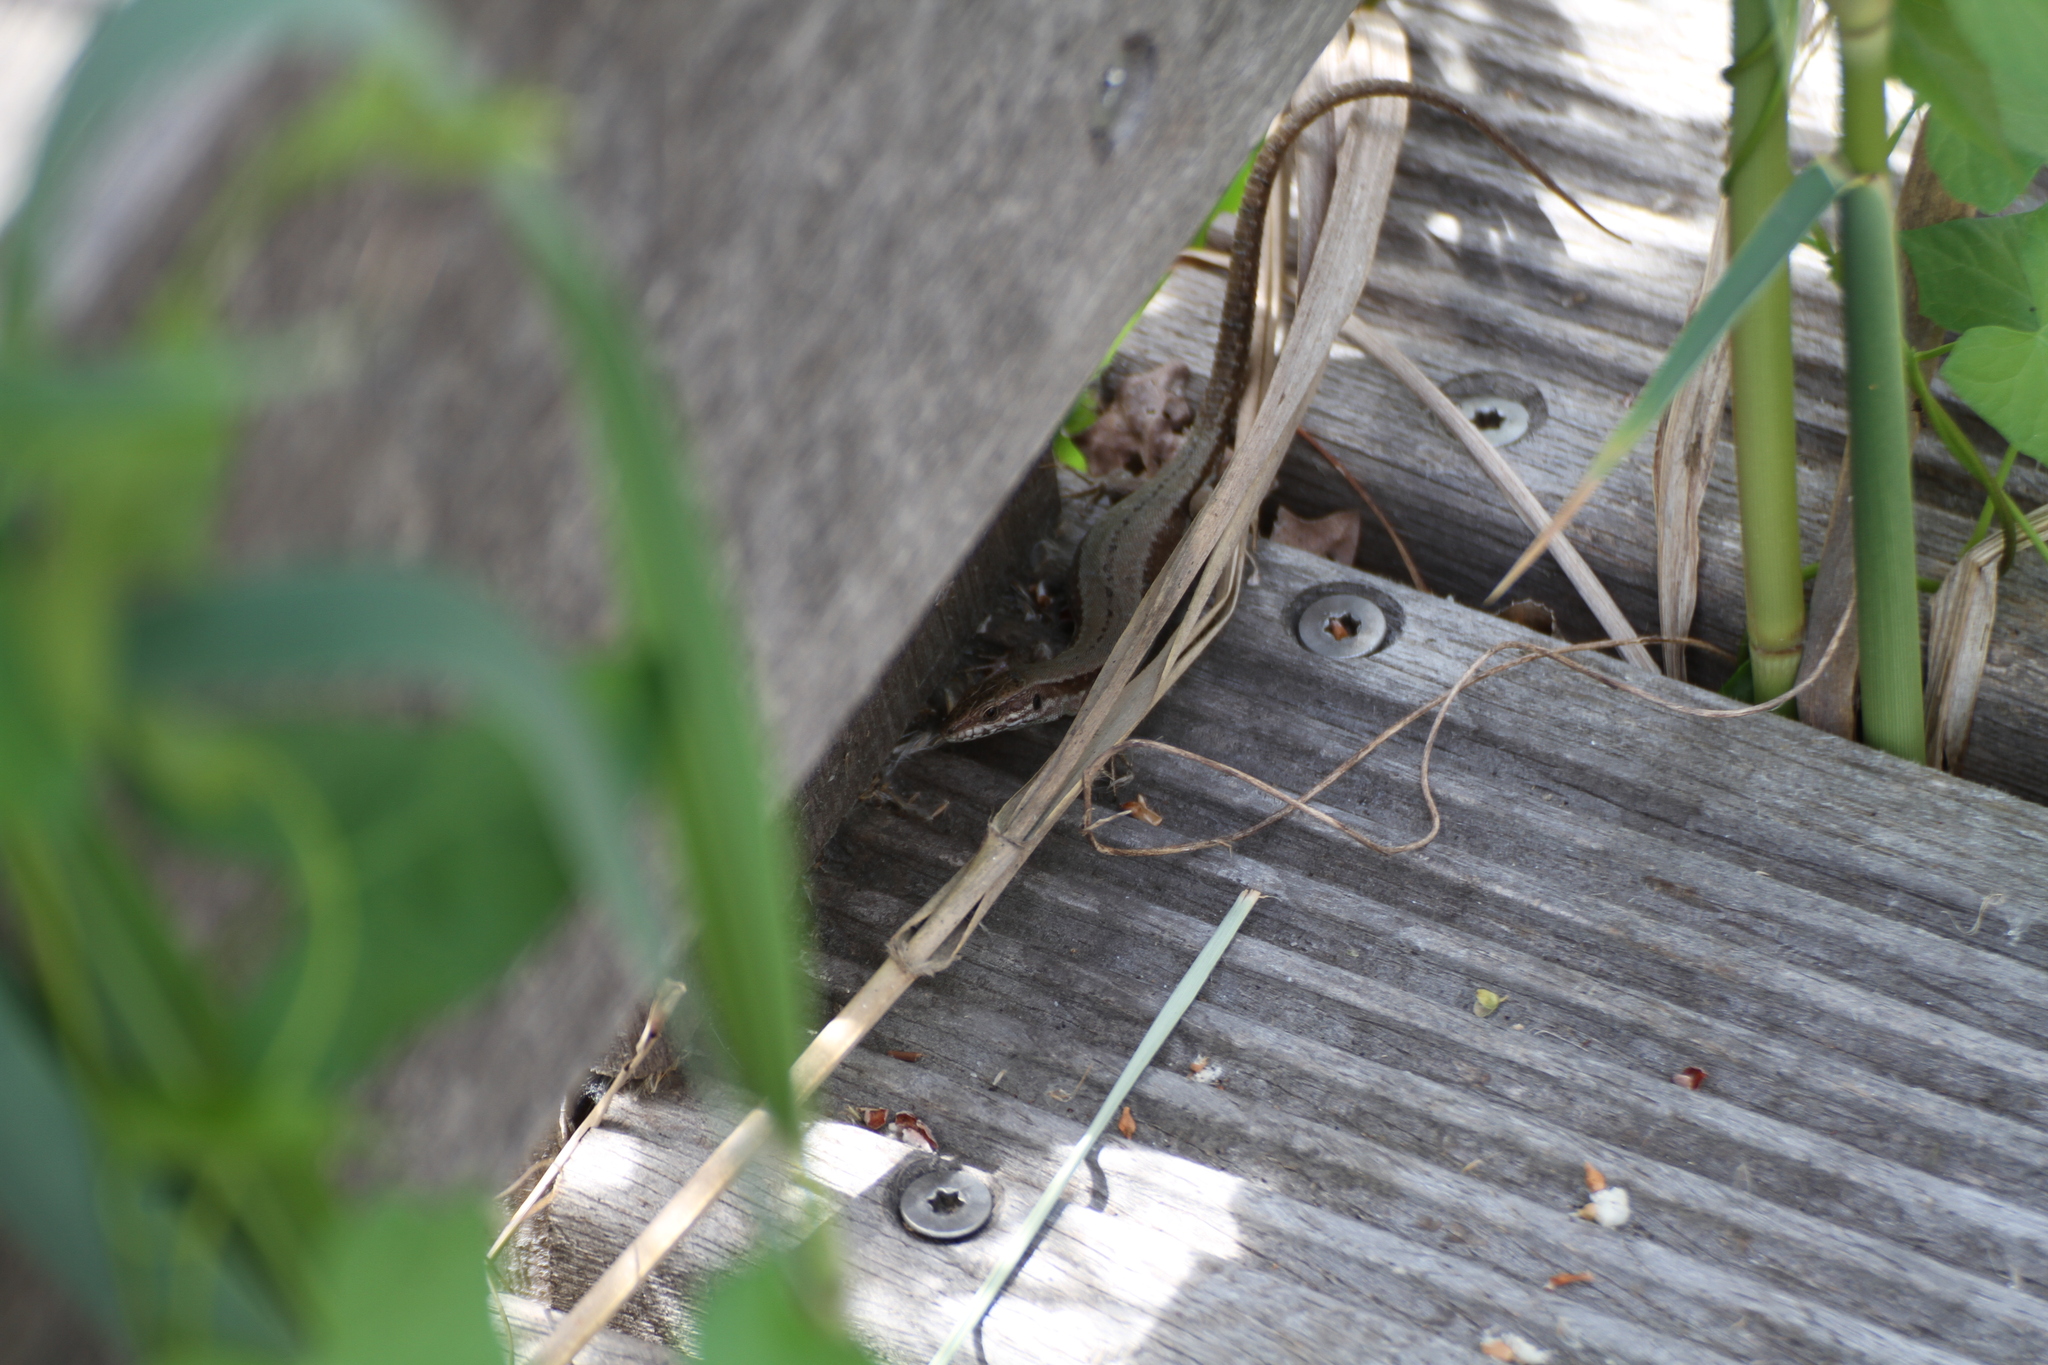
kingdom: Animalia
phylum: Chordata
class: Squamata
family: Lacertidae
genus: Podarcis
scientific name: Podarcis muralis
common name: Common wall lizard
